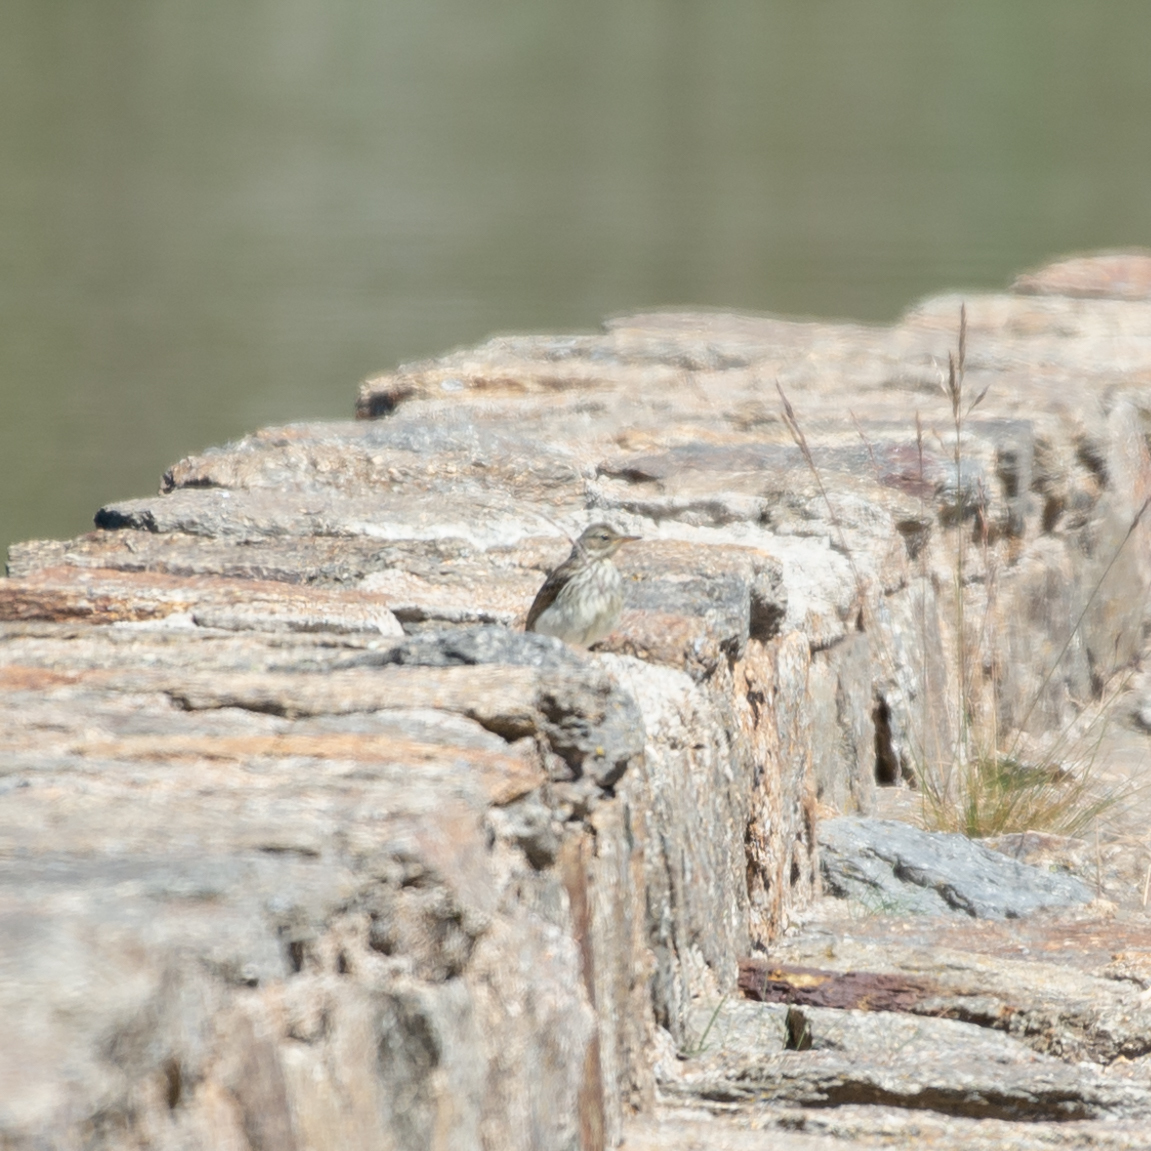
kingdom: Animalia
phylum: Chordata
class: Aves
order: Passeriformes
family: Motacillidae
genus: Anthus
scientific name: Anthus spinoletta
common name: Water pipit
